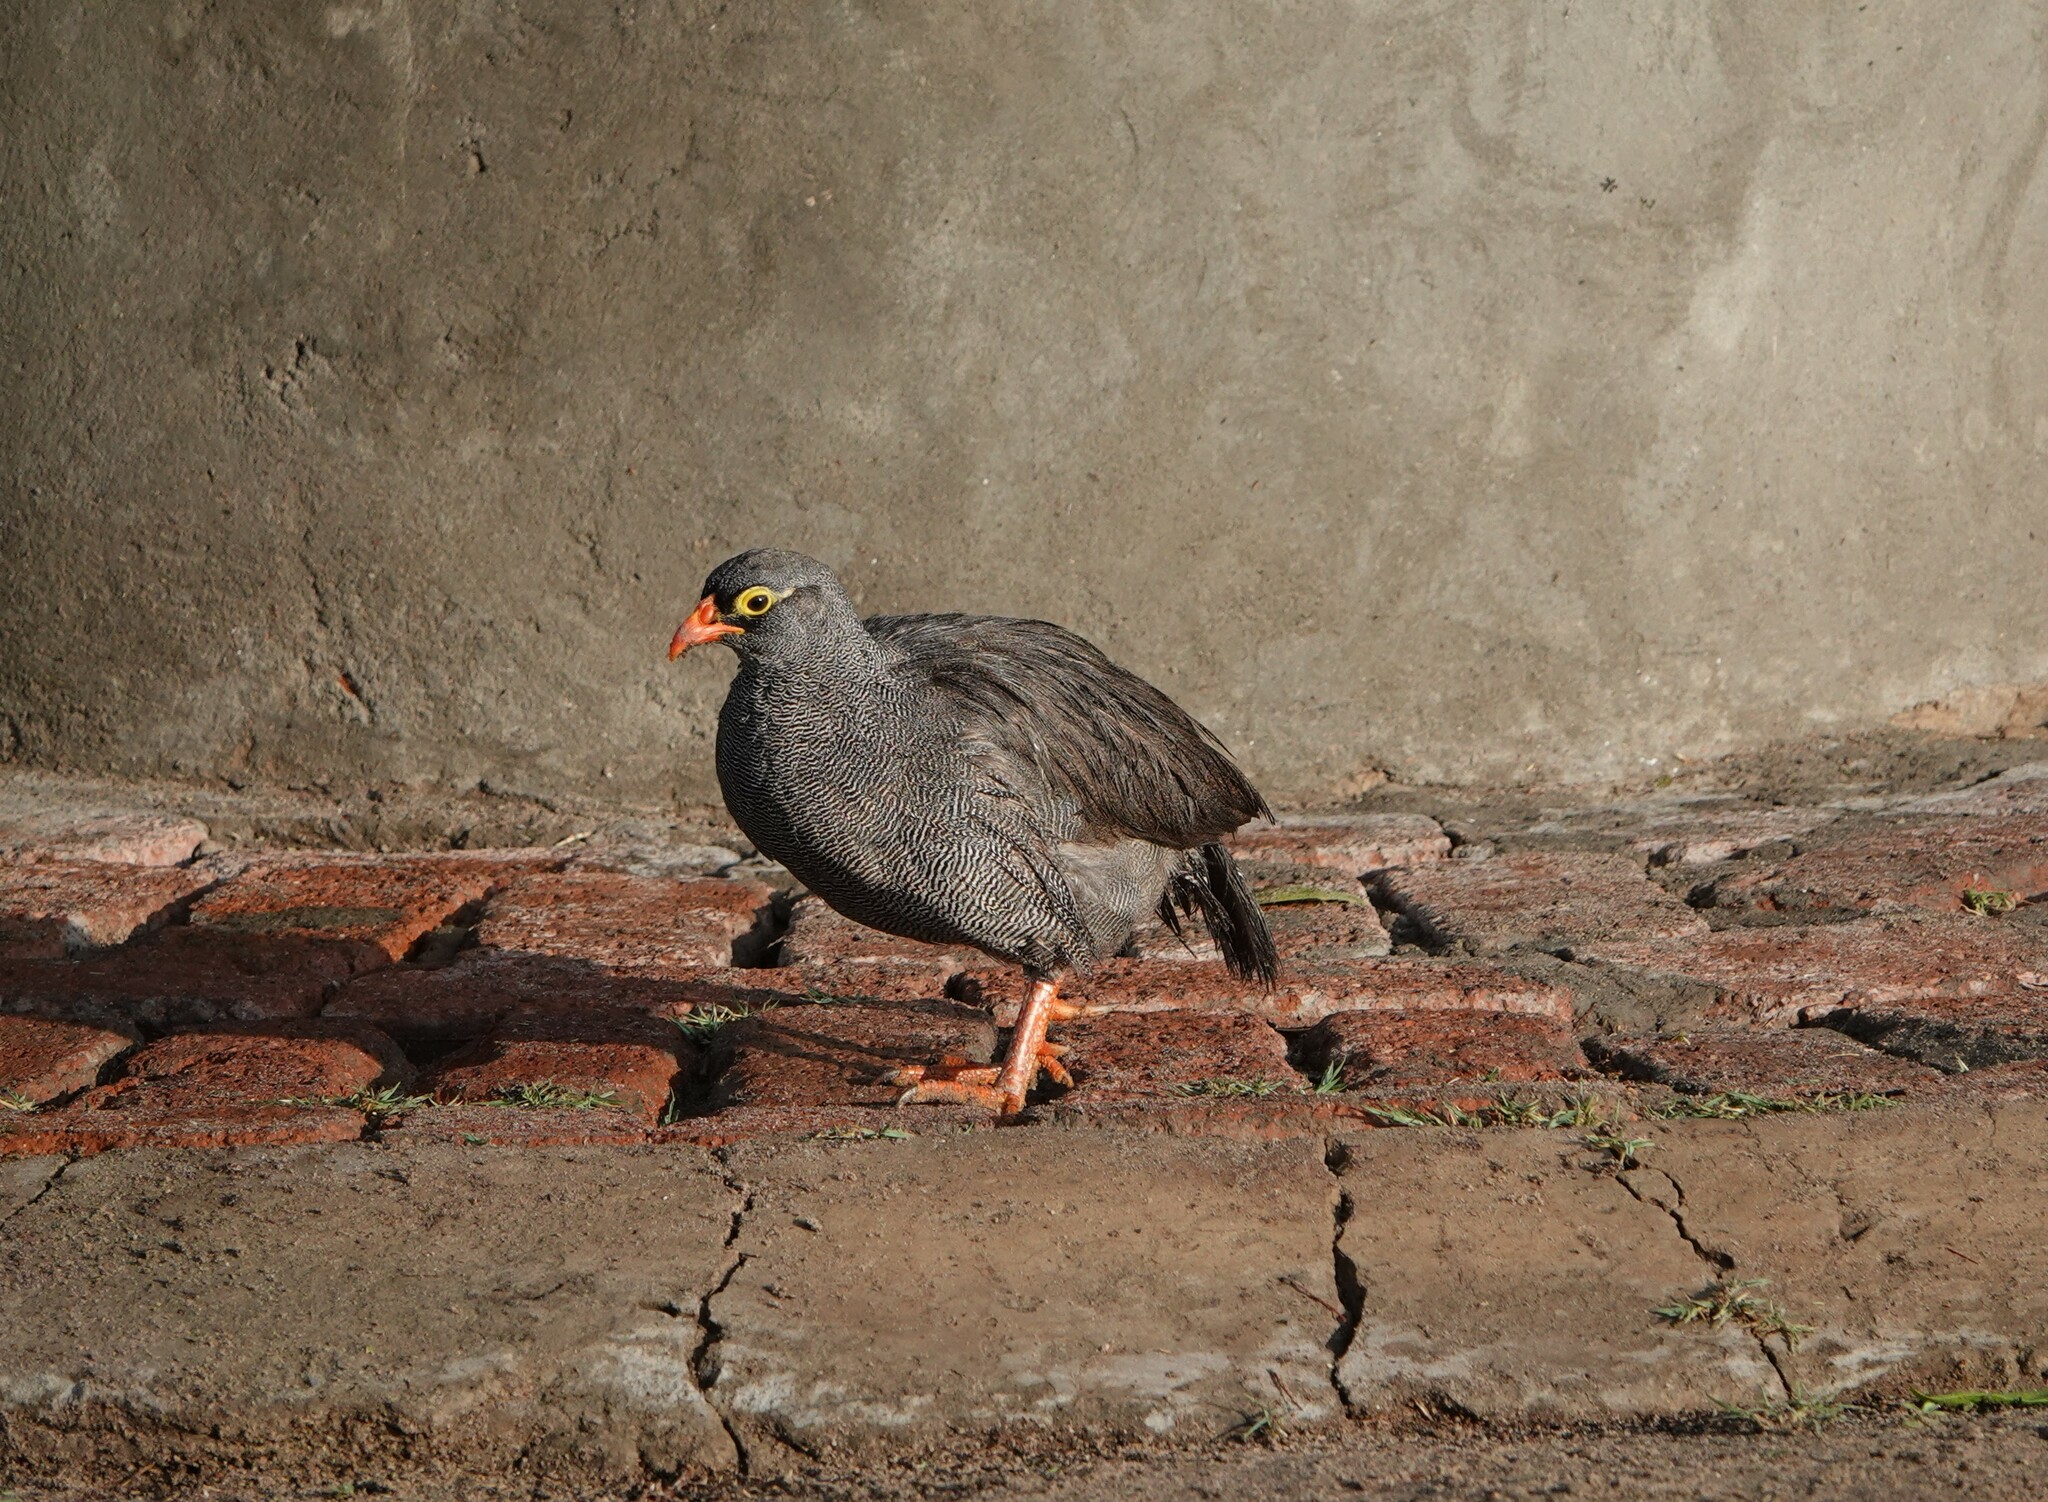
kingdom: Animalia
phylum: Chordata
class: Aves
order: Galliformes
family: Phasianidae
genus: Pternistis
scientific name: Pternistis adspersus
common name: Red-billed spurfowl
